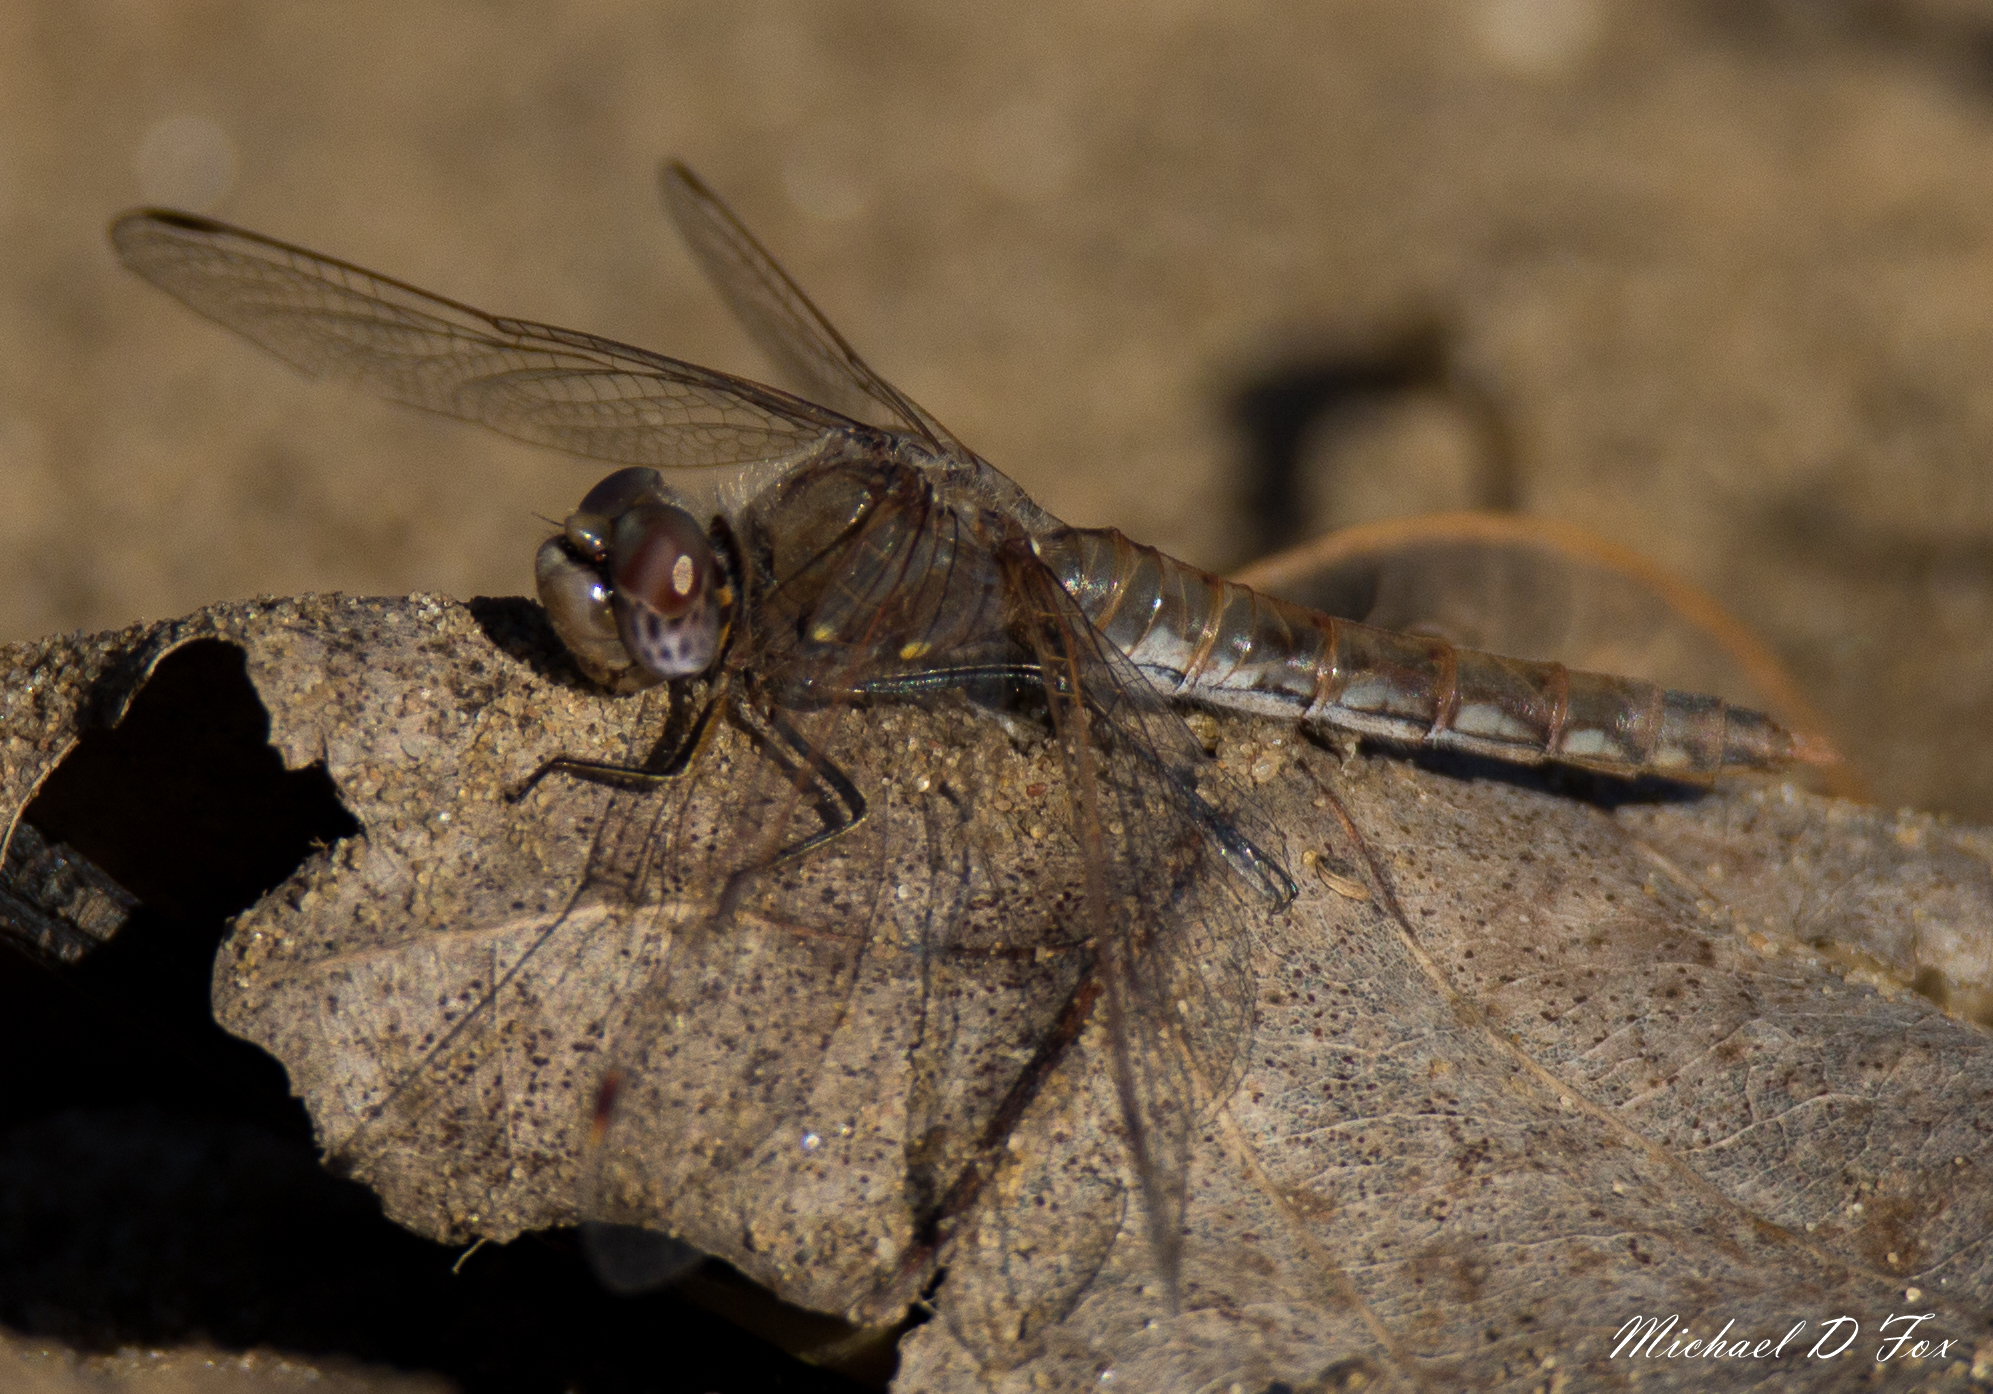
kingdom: Animalia
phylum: Arthropoda
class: Insecta
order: Odonata
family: Libellulidae
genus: Sympetrum
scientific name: Sympetrum corruptum
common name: Variegated meadowhawk
